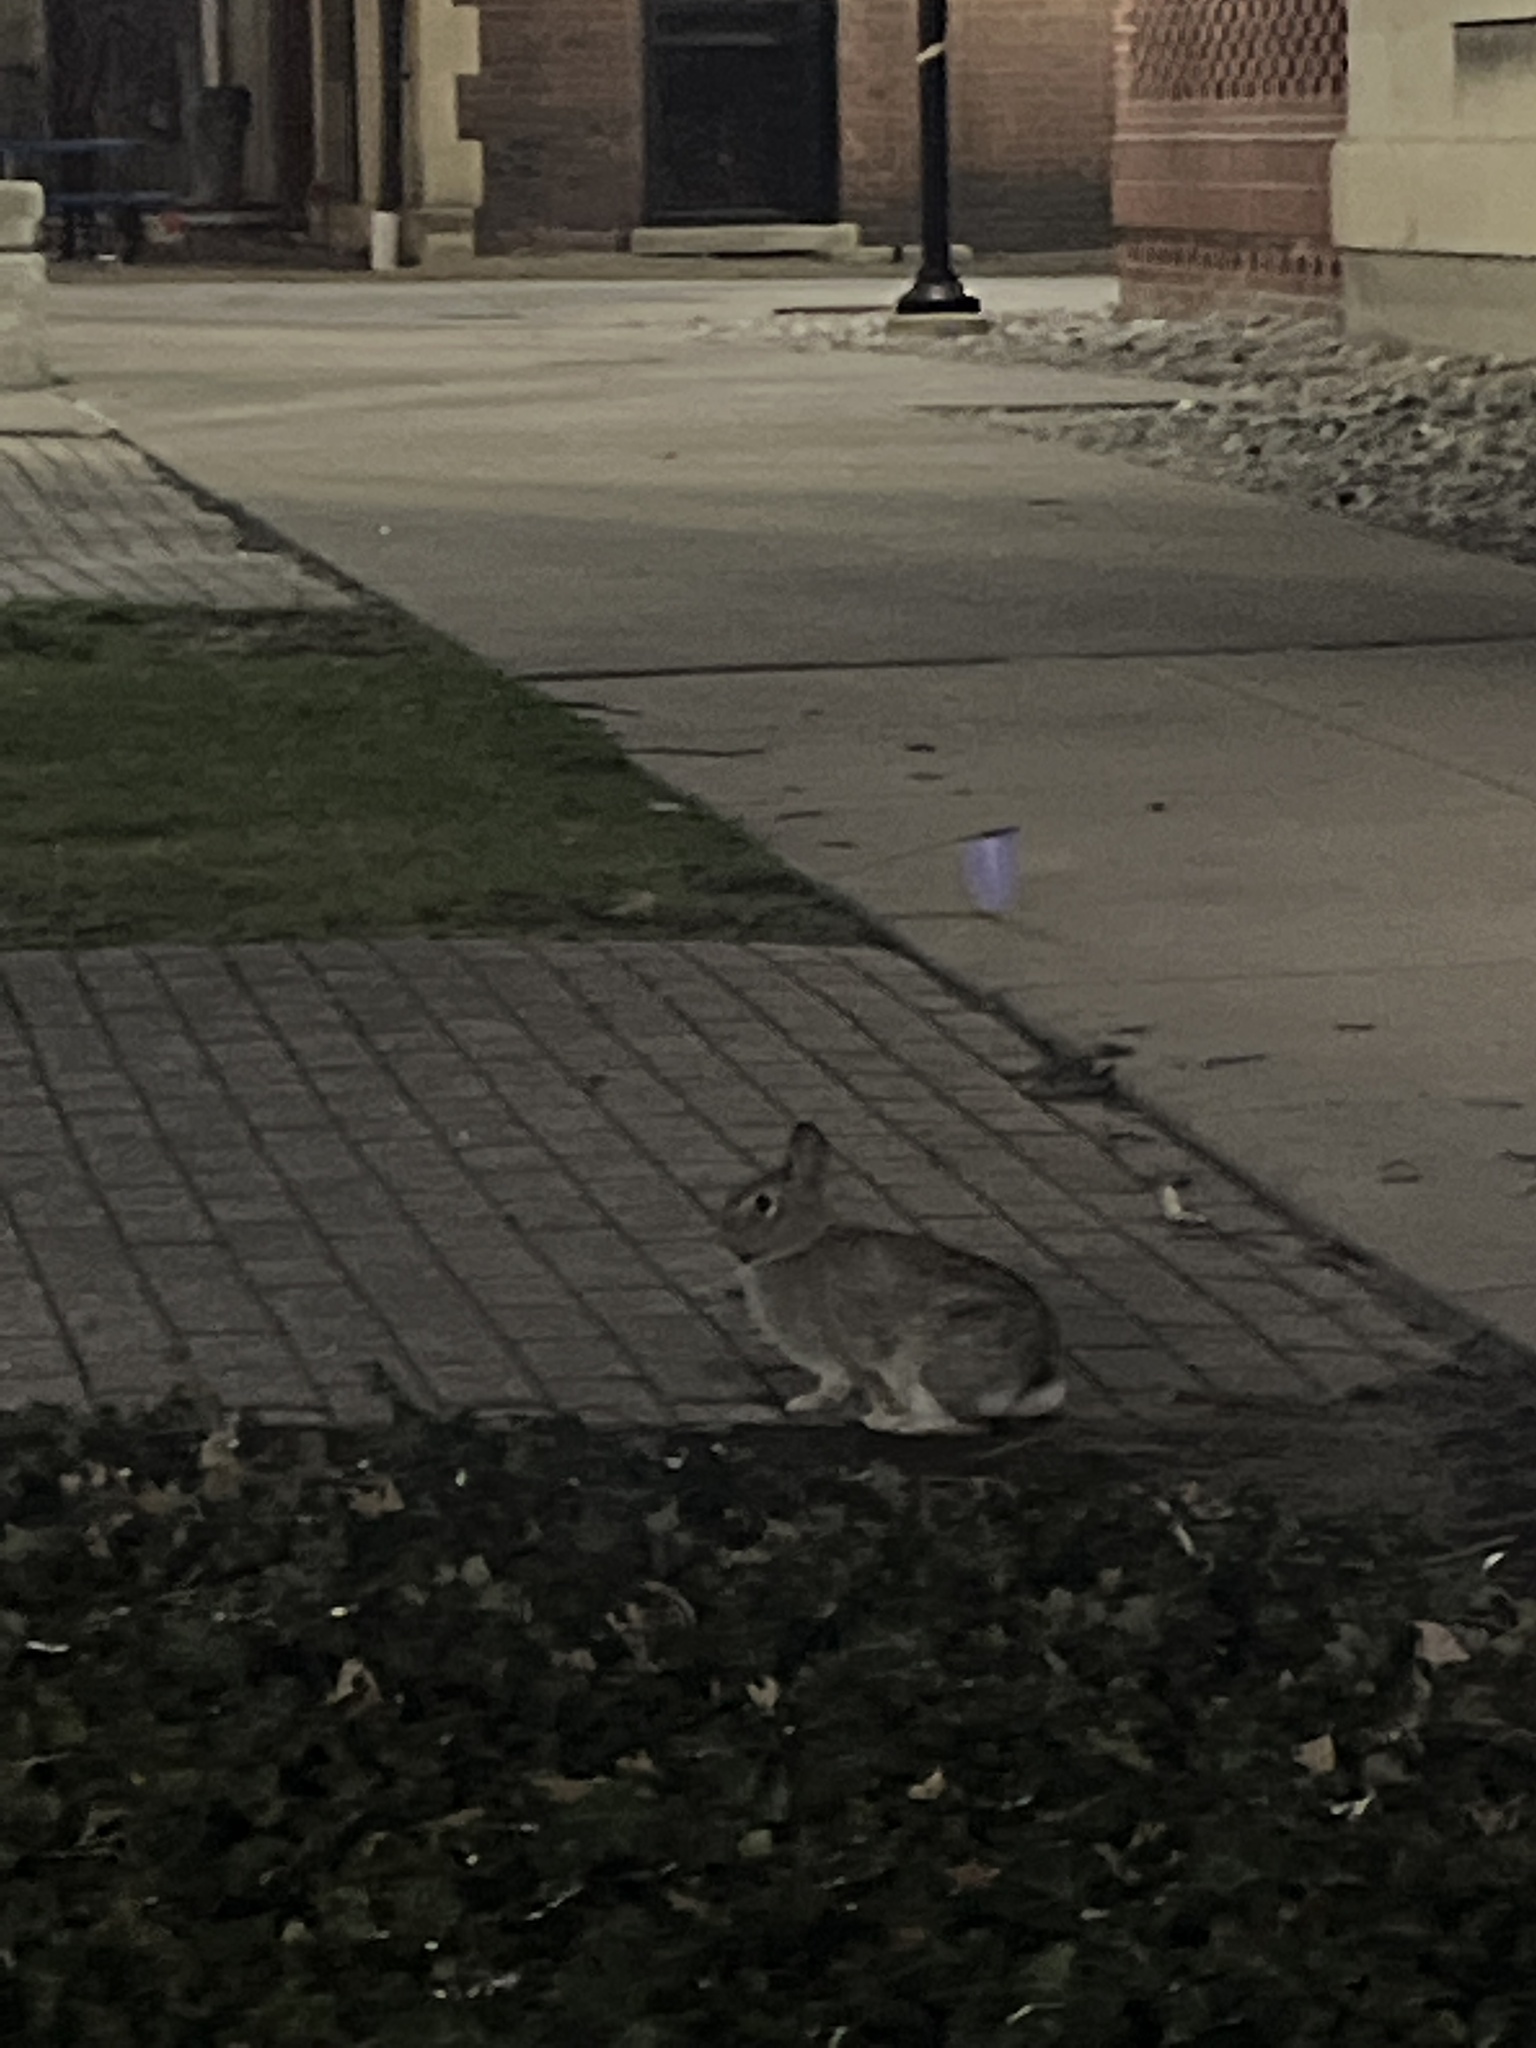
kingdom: Animalia
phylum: Chordata
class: Mammalia
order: Lagomorpha
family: Leporidae
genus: Sylvilagus
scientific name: Sylvilagus floridanus
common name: Eastern cottontail
